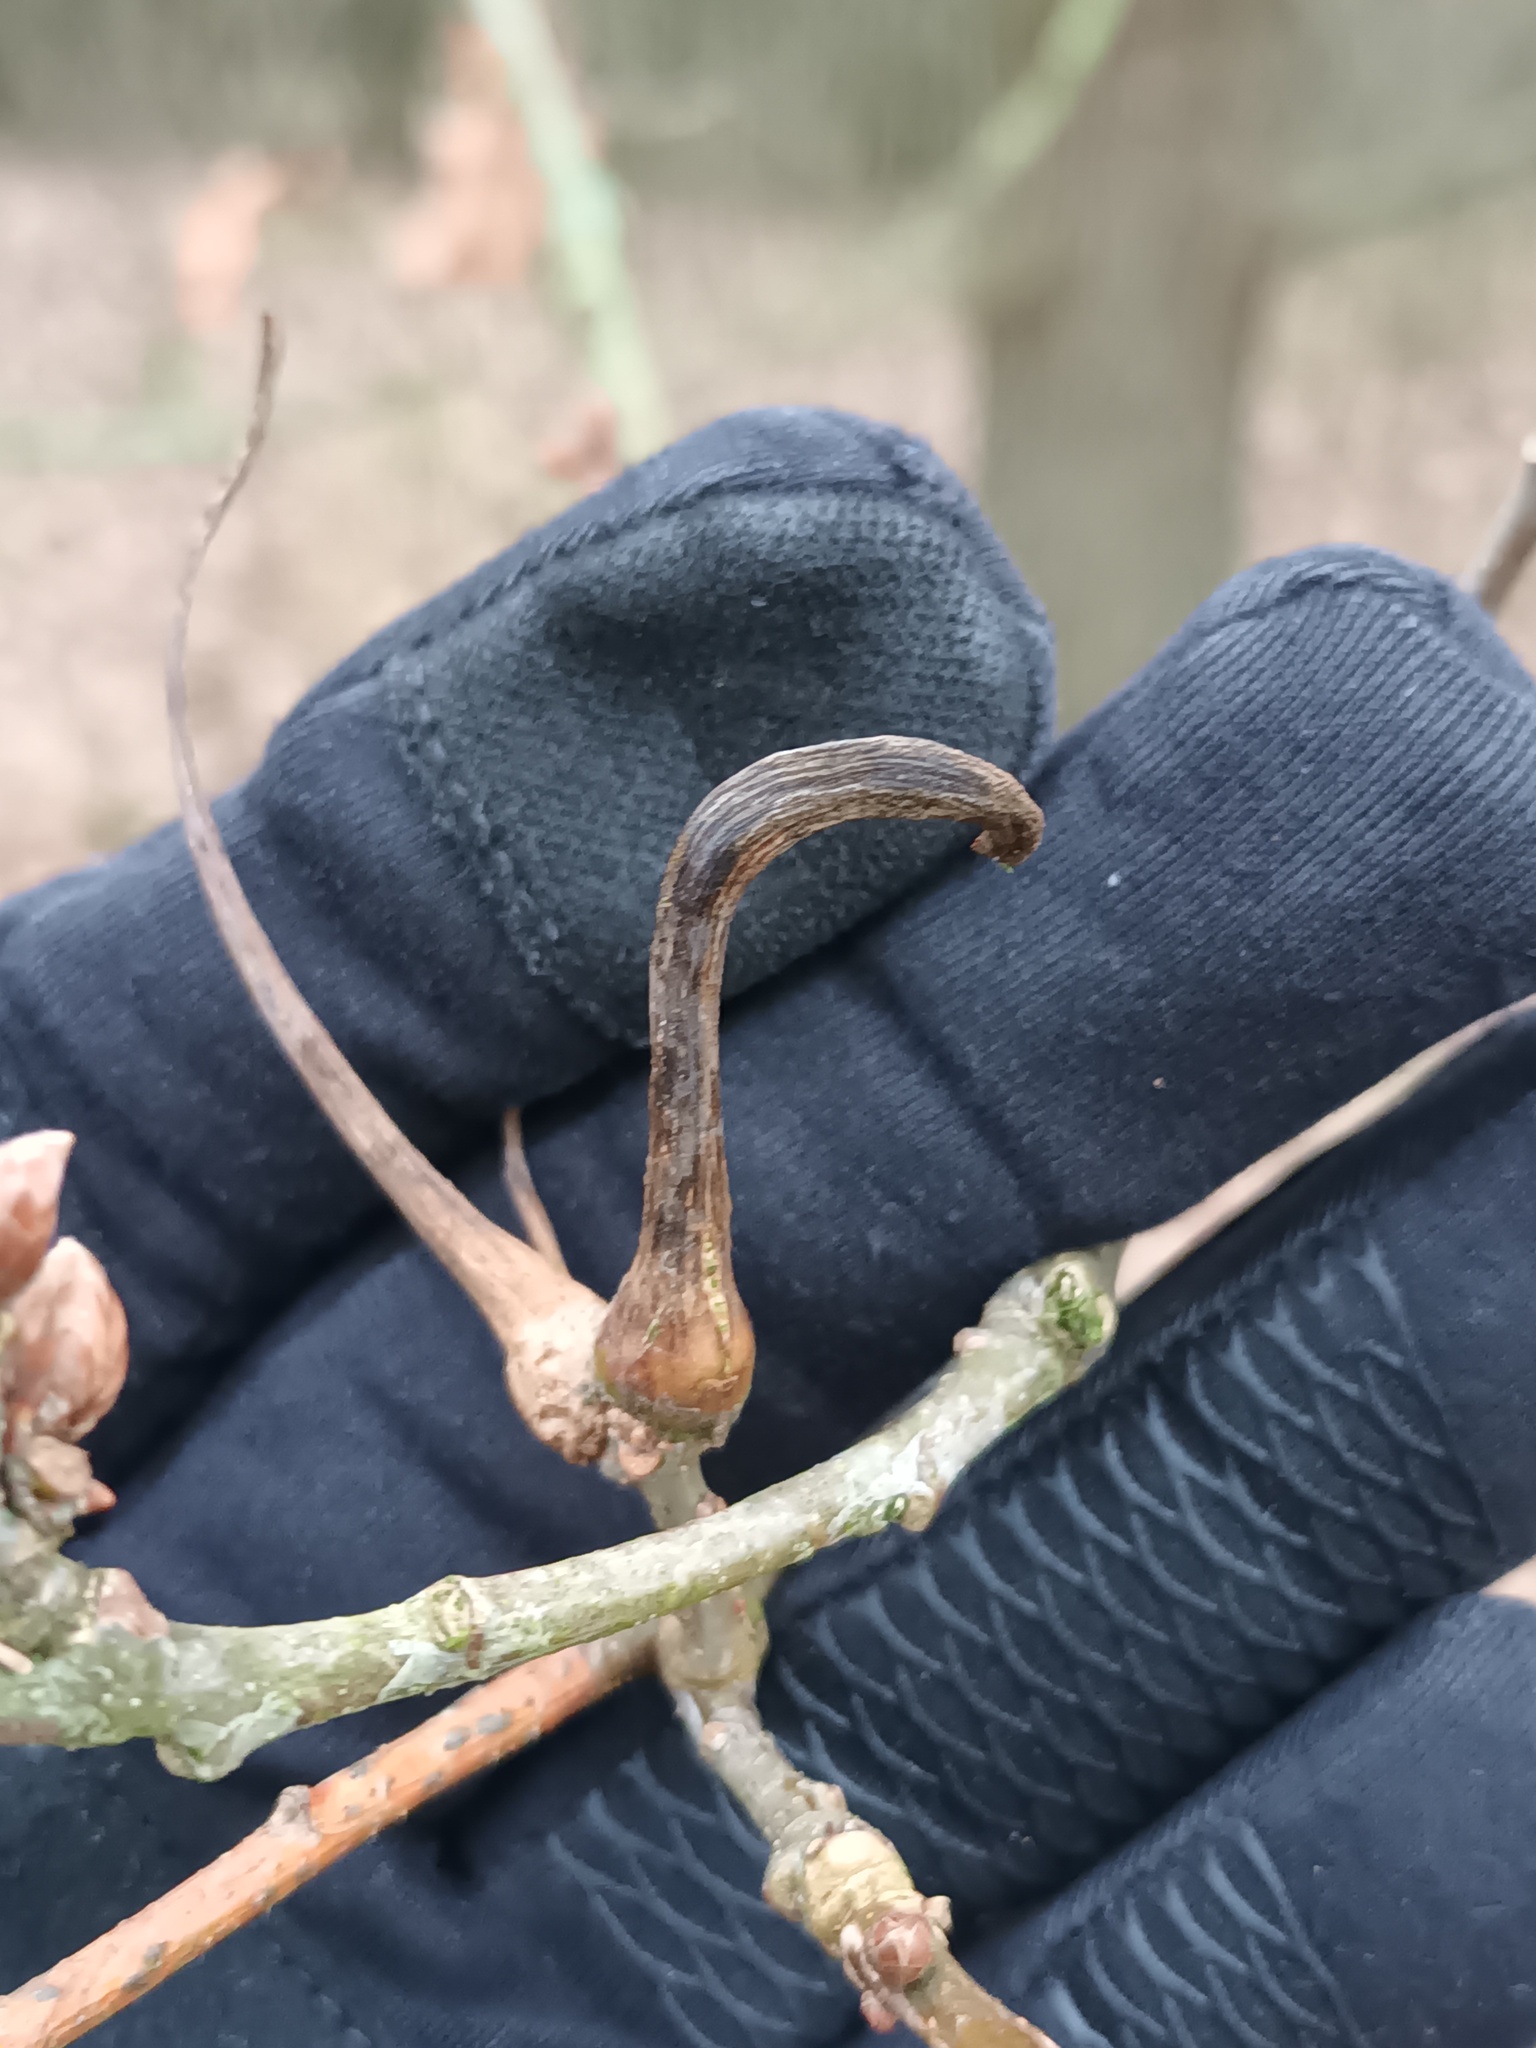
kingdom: Animalia
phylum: Arthropoda
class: Insecta
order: Hymenoptera
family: Cynipidae
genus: Andricus
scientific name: Andricus aries
